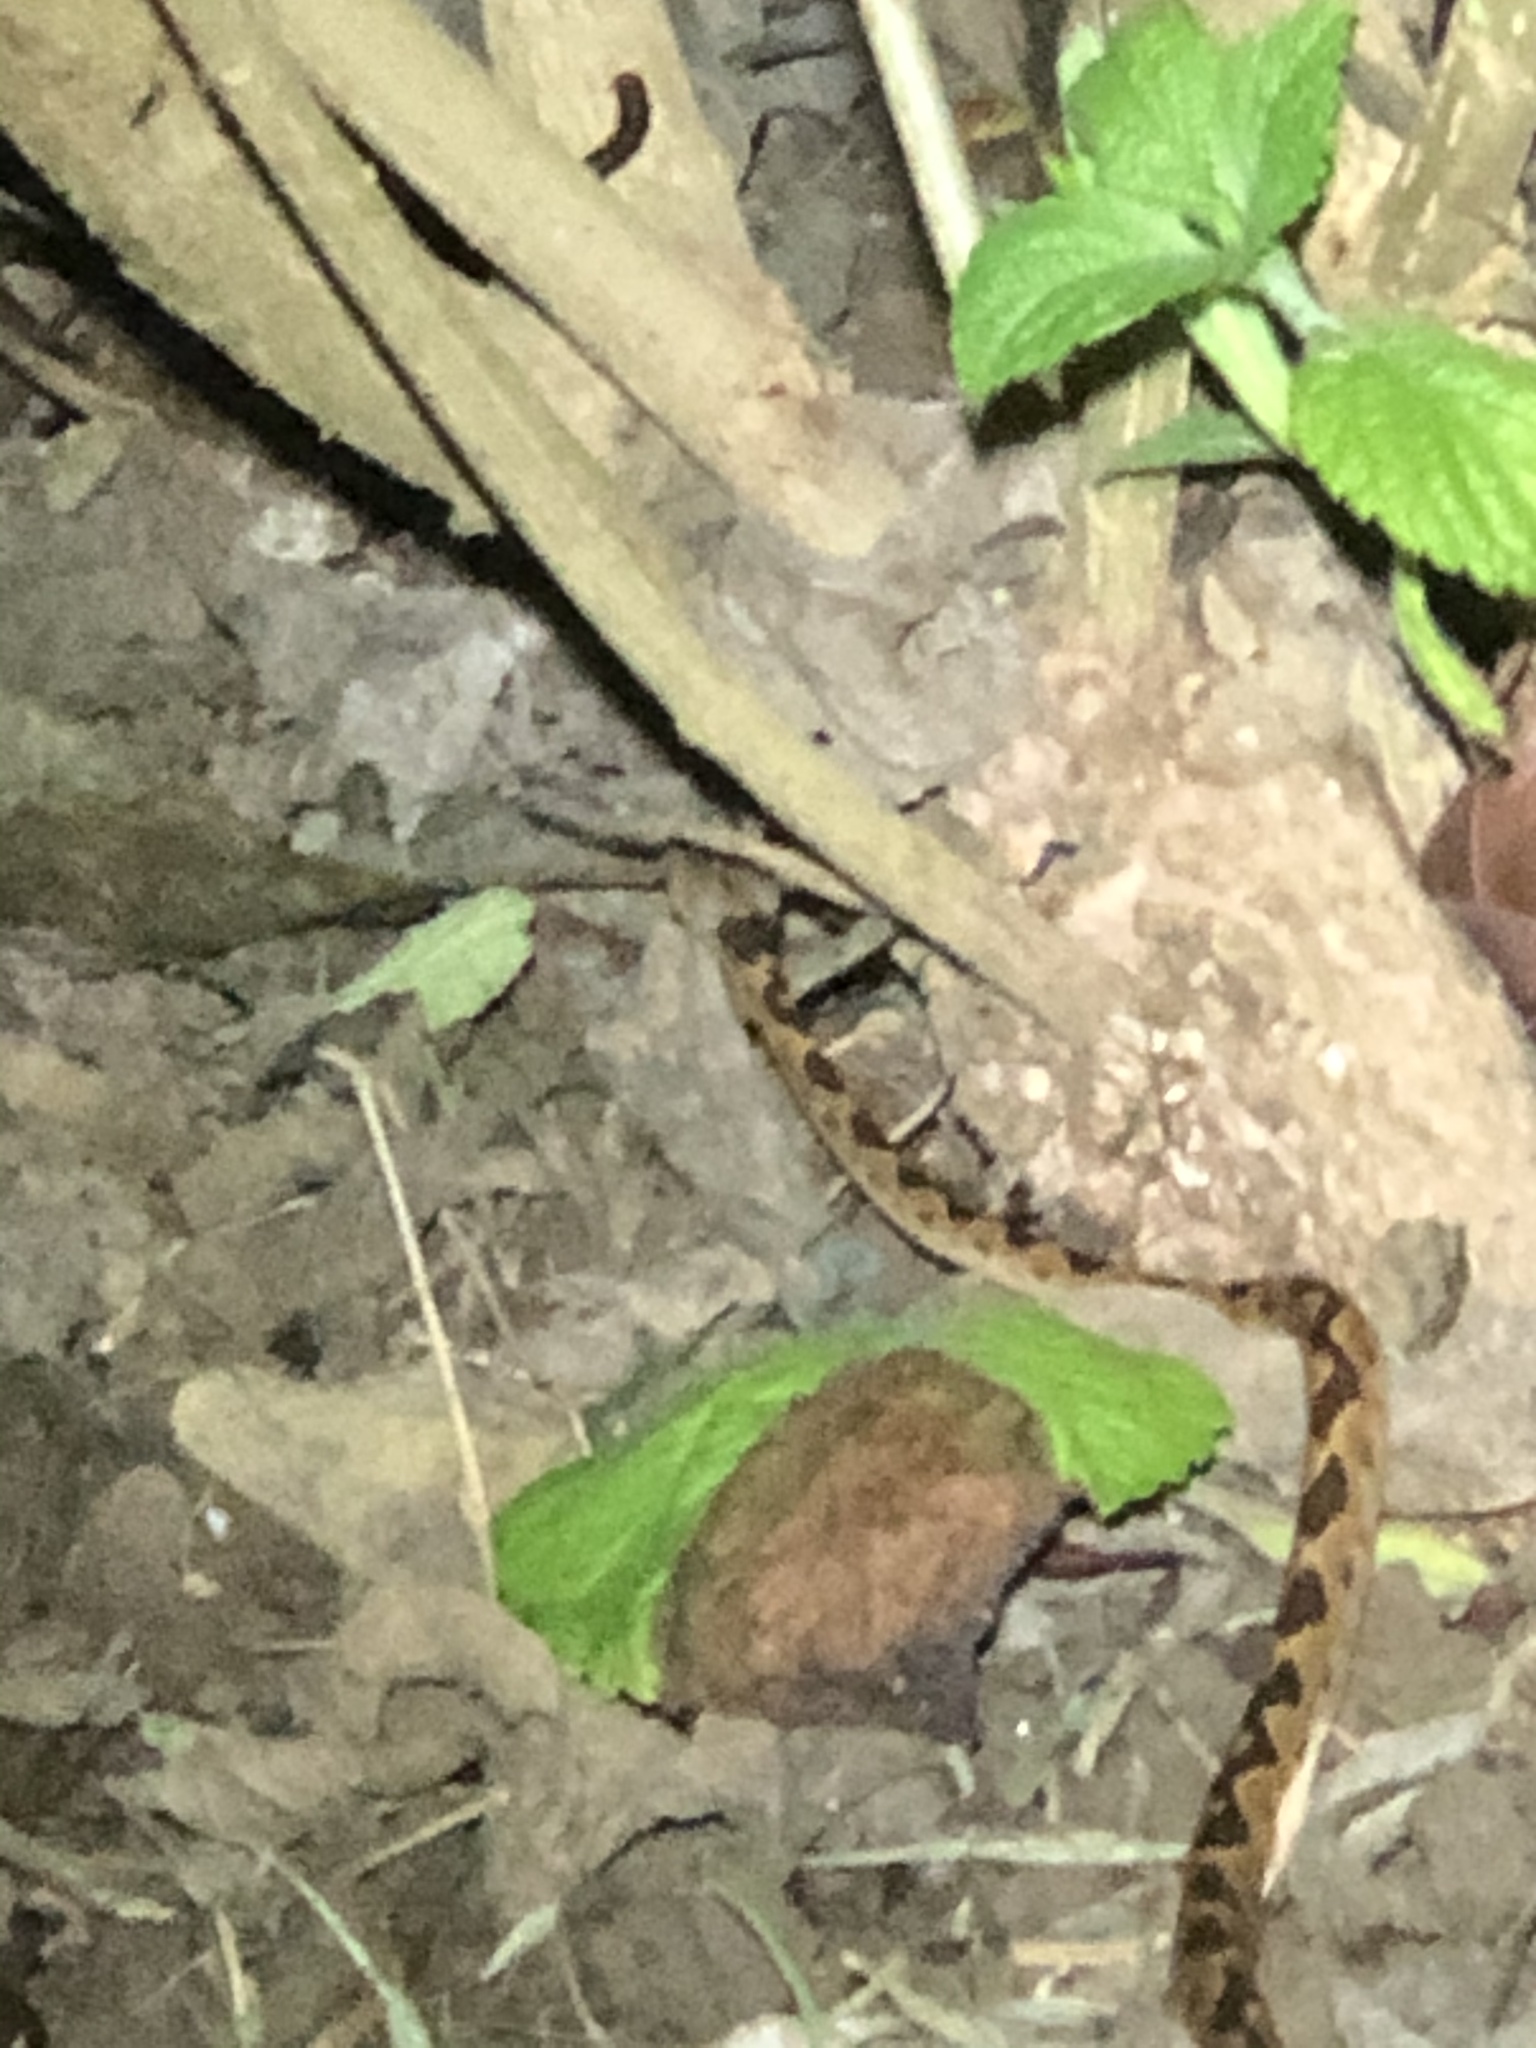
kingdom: Animalia
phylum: Chordata
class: Squamata
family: Colubridae
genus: Leptodeira
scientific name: Leptodeira ornata
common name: Northern cat-eyed snake
